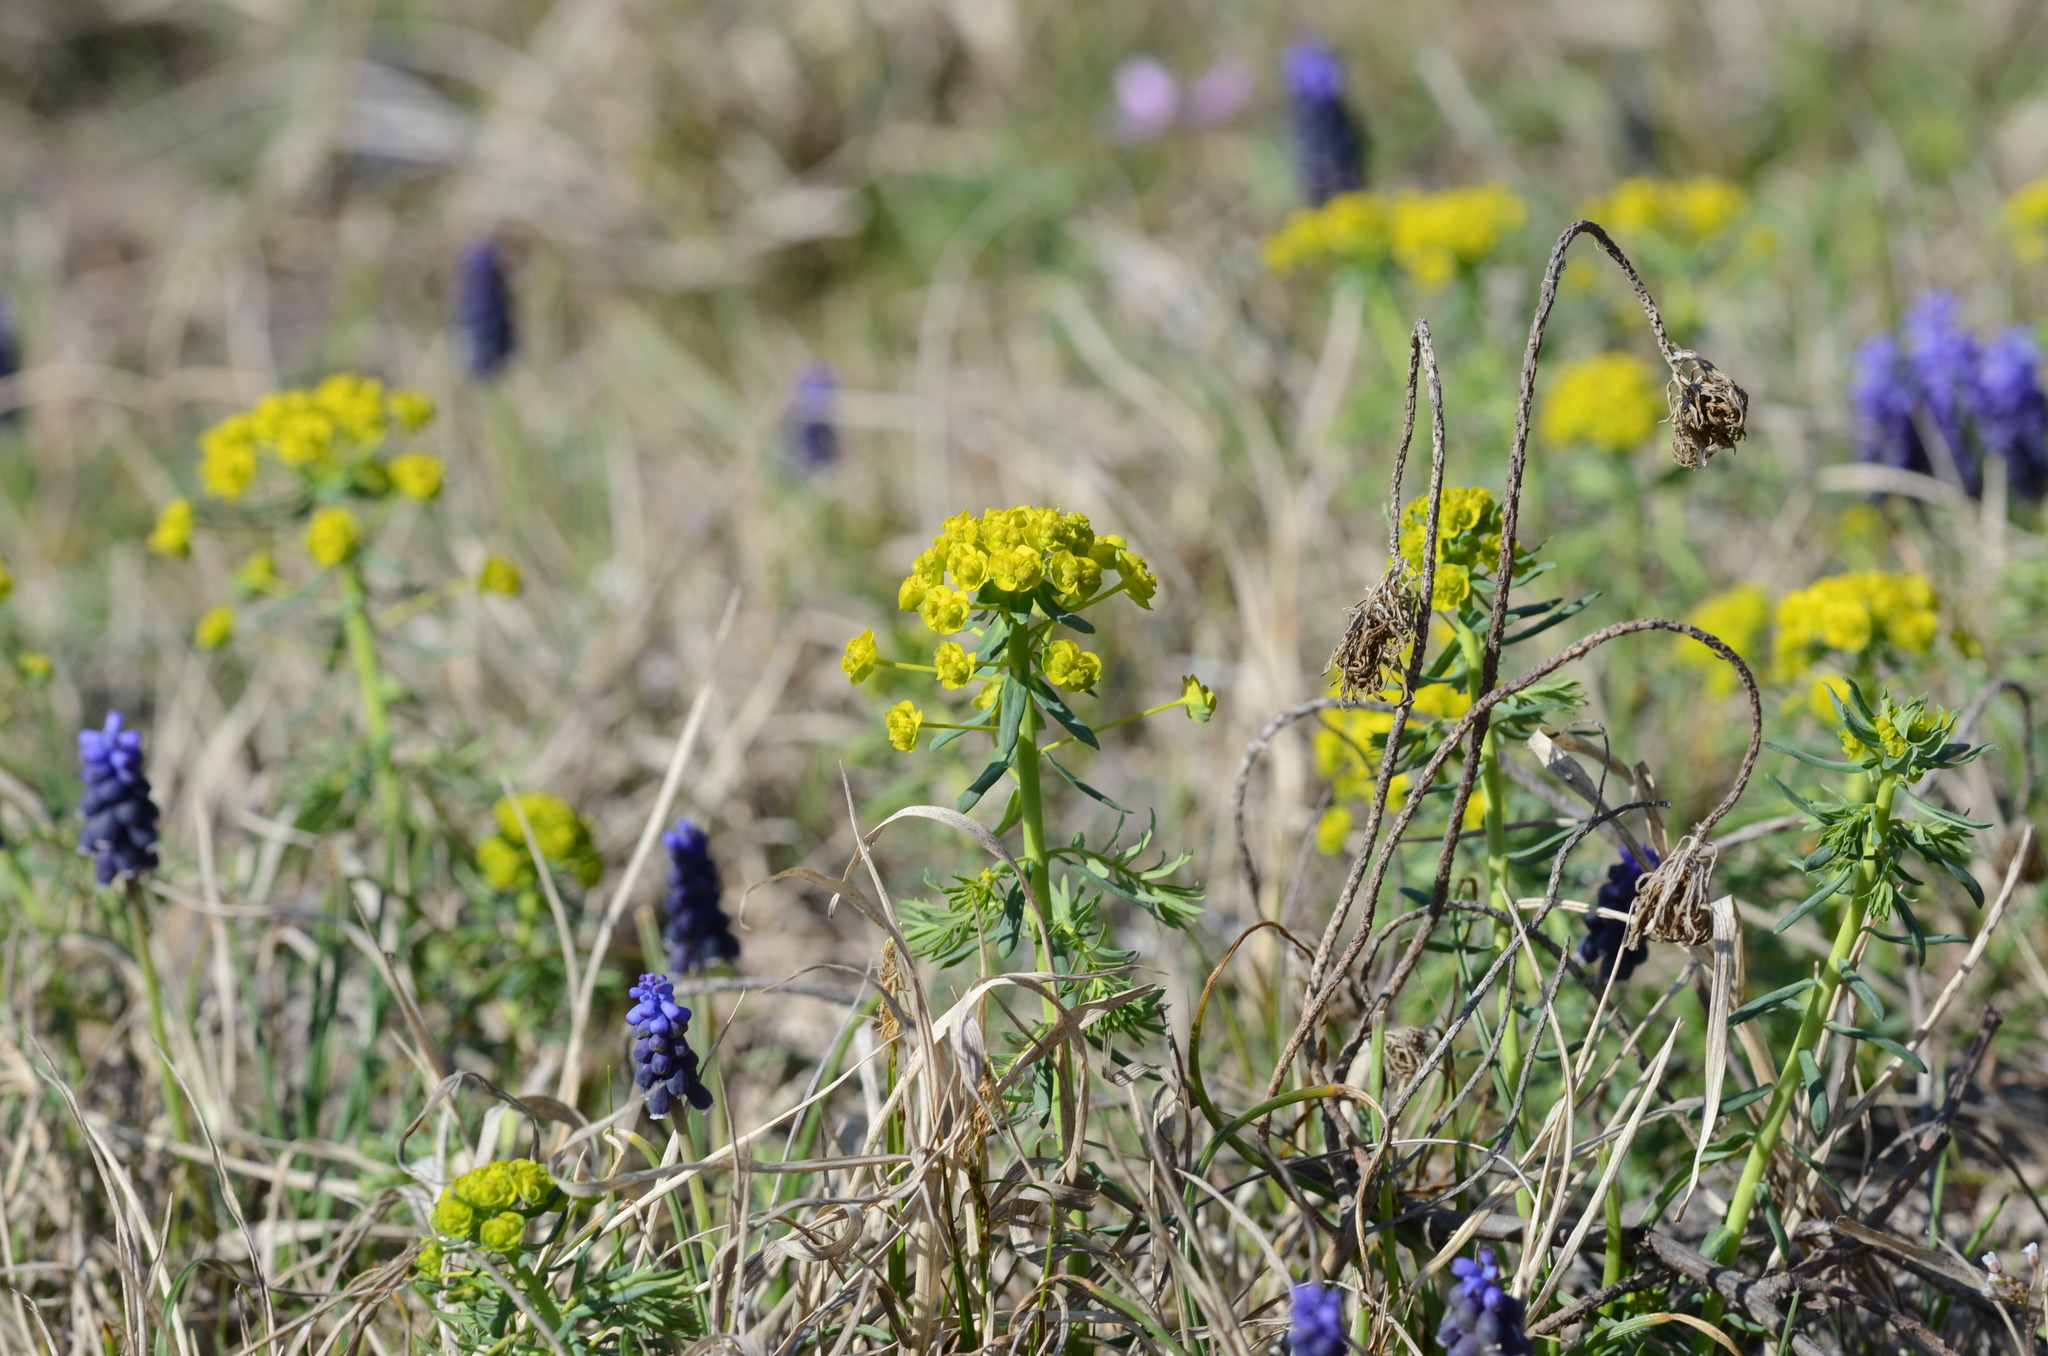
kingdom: Plantae
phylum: Tracheophyta
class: Magnoliopsida
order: Malpighiales
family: Euphorbiaceae
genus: Euphorbia
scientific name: Euphorbia cyparissias
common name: Cypress spurge
